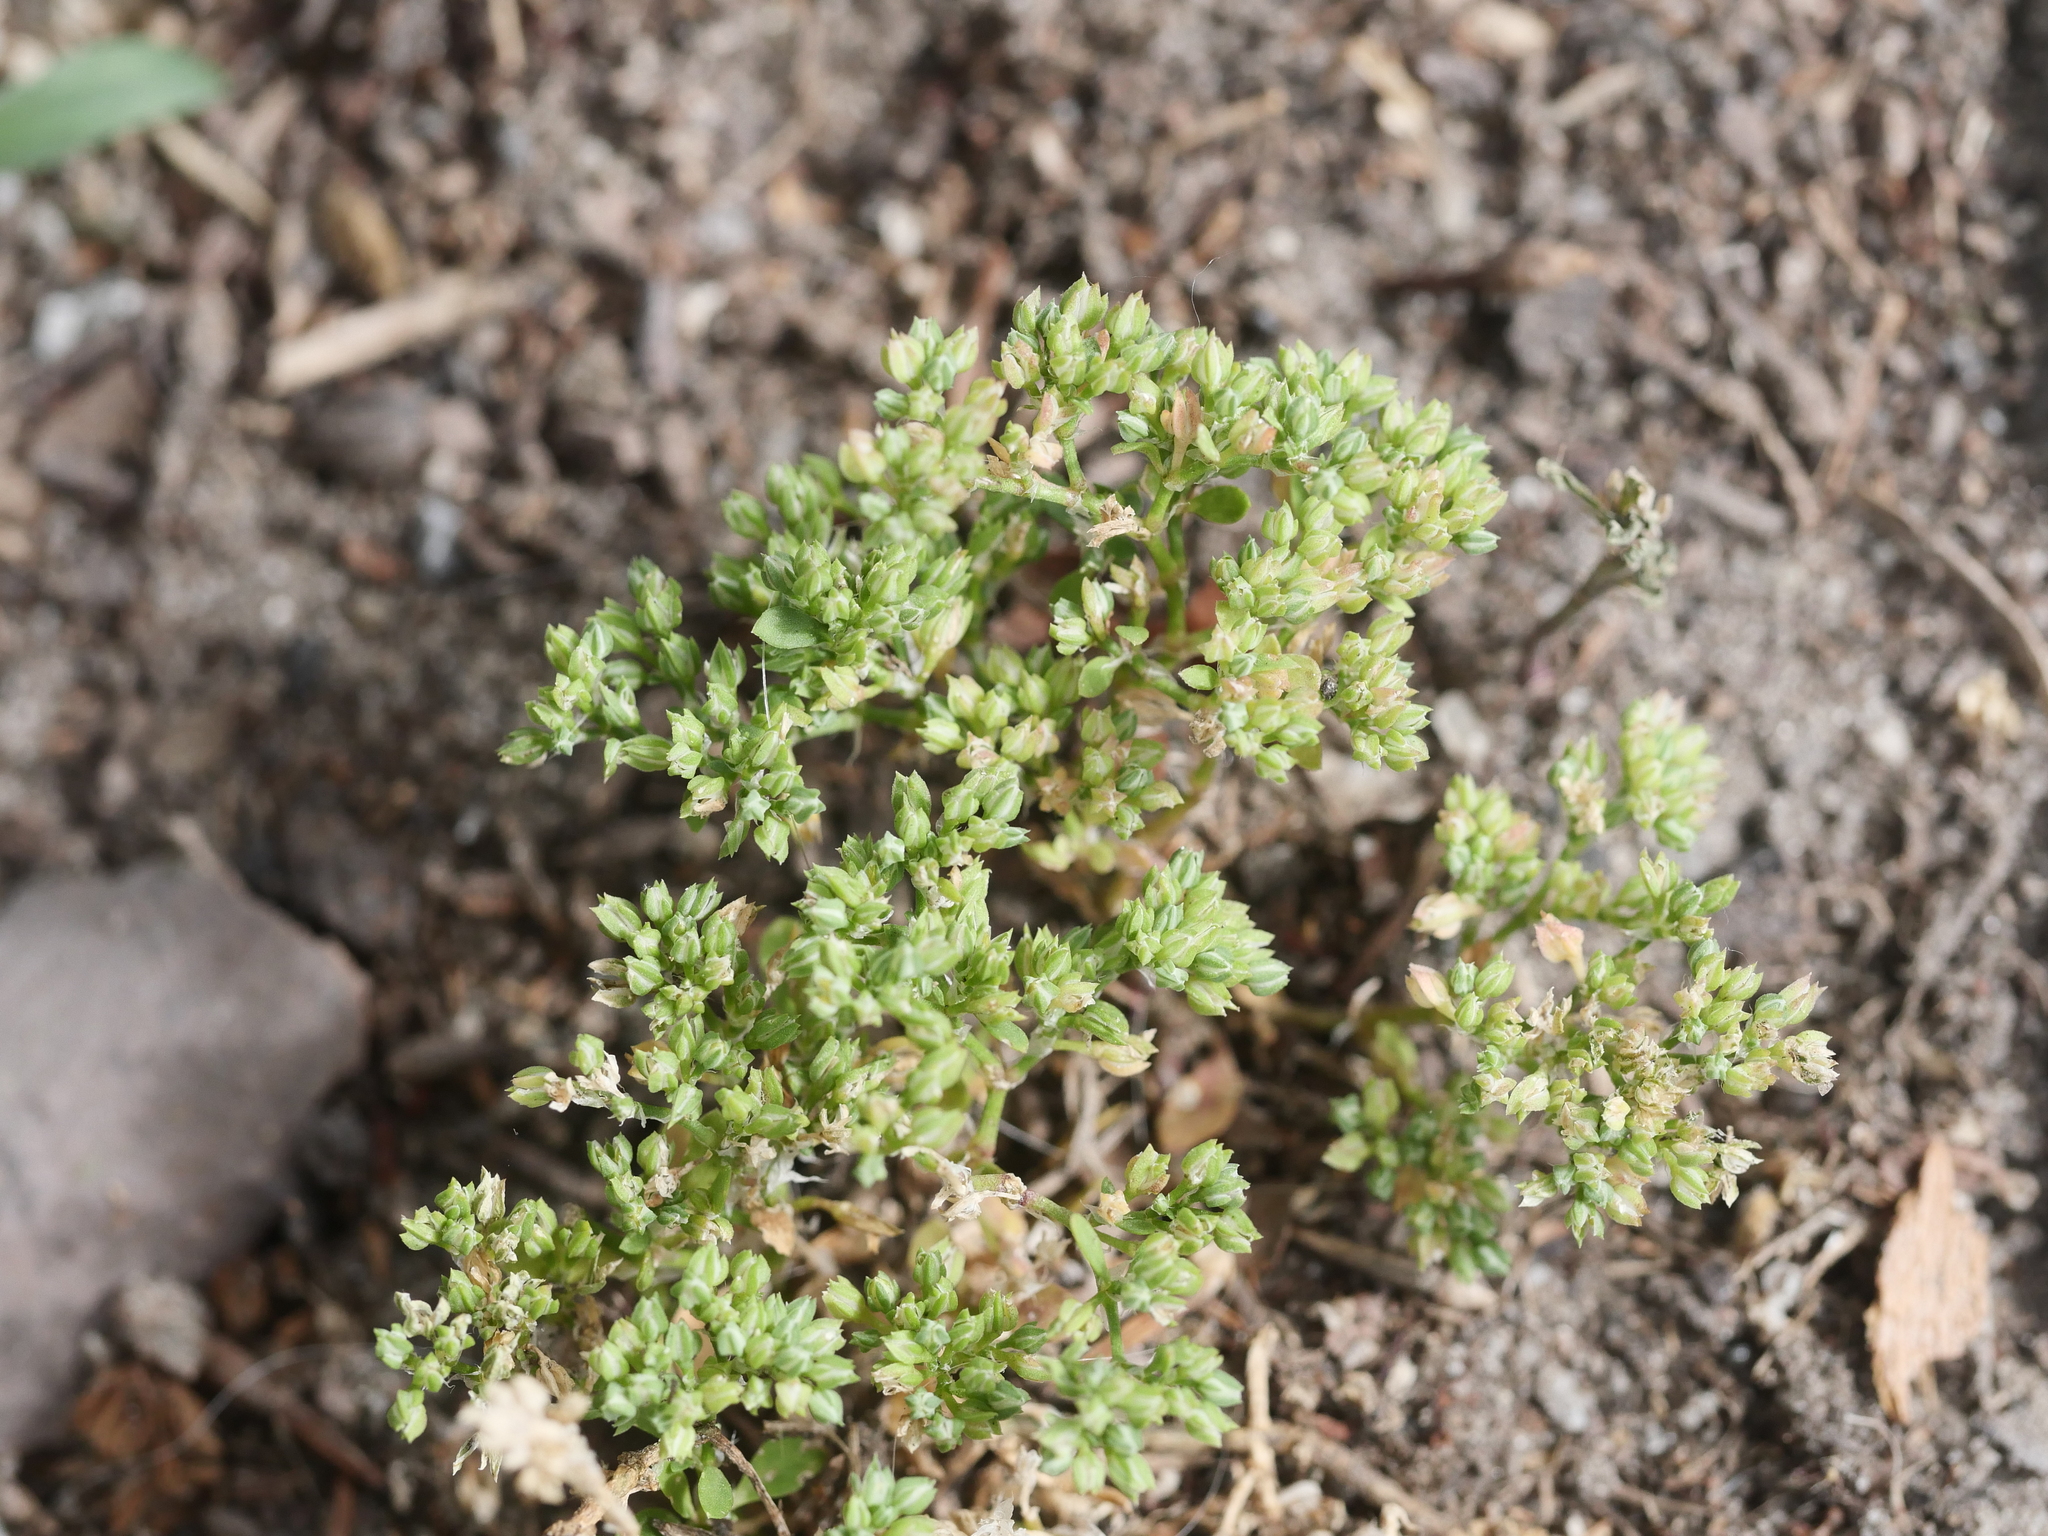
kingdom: Plantae
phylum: Tracheophyta
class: Magnoliopsida
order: Caryophyllales
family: Caryophyllaceae
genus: Polycarpon
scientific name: Polycarpon tetraphyllum
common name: Four-leaved all-seed
